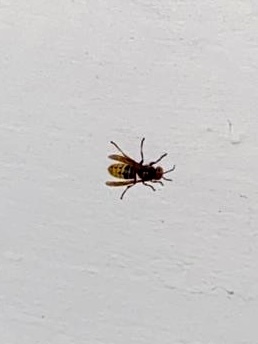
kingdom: Animalia
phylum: Arthropoda
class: Insecta
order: Hymenoptera
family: Vespidae
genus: Vespa
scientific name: Vespa crabro
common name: Hornet
